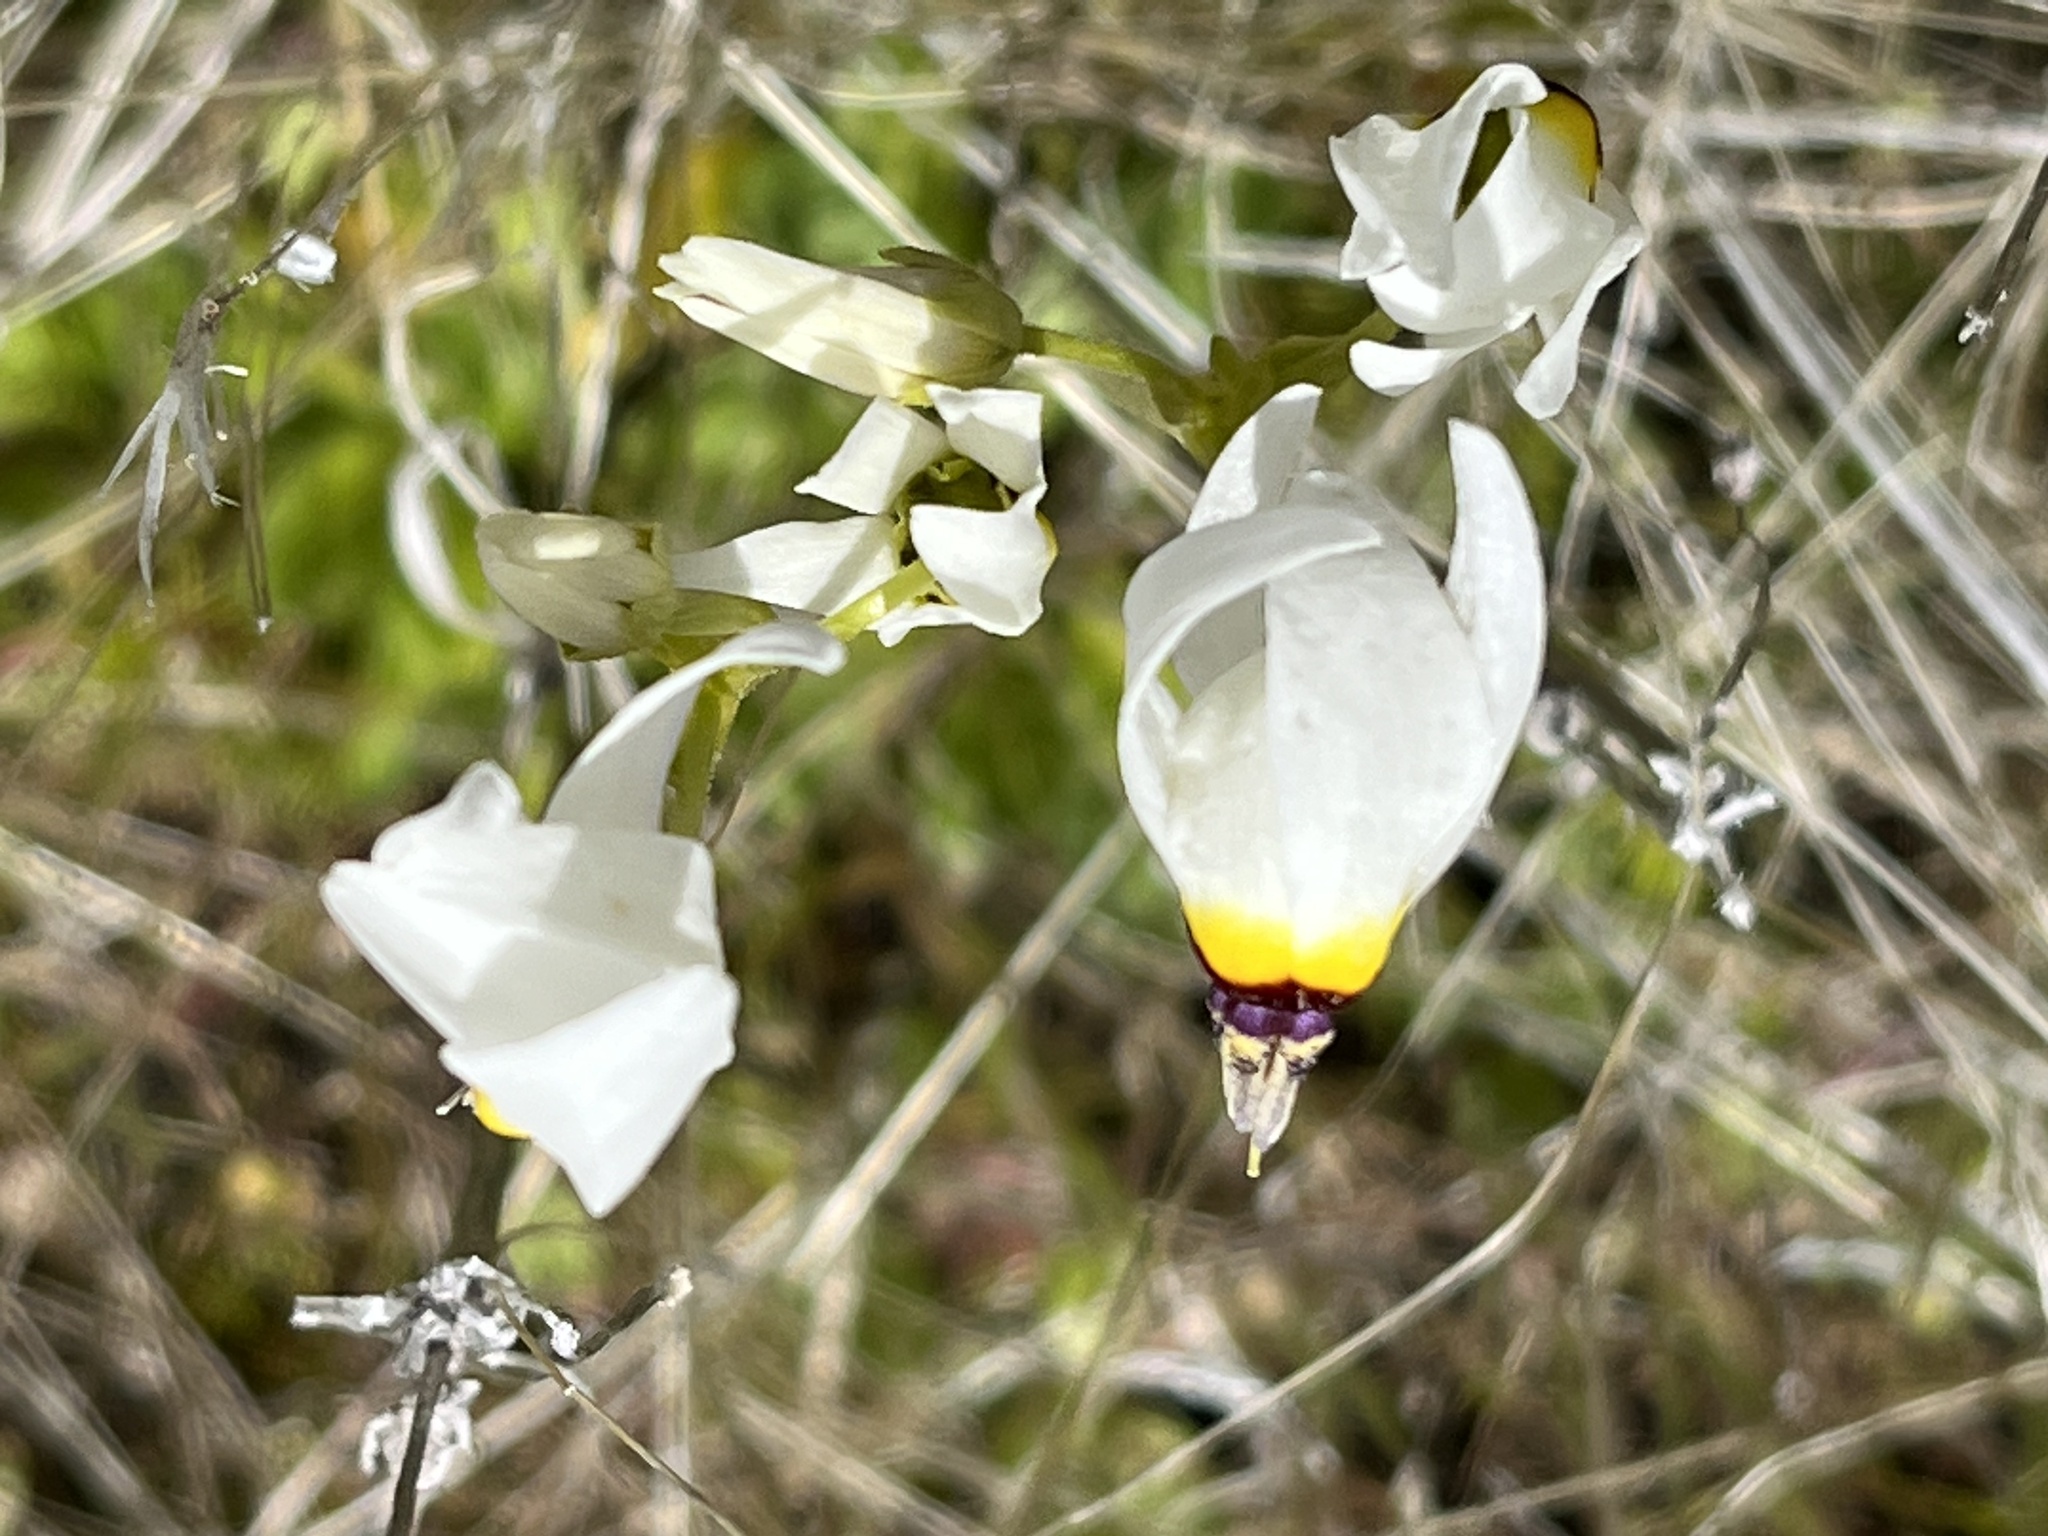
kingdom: Plantae
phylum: Tracheophyta
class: Magnoliopsida
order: Ericales
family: Primulaceae
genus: Dodecatheon
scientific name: Dodecatheon clevelandii
